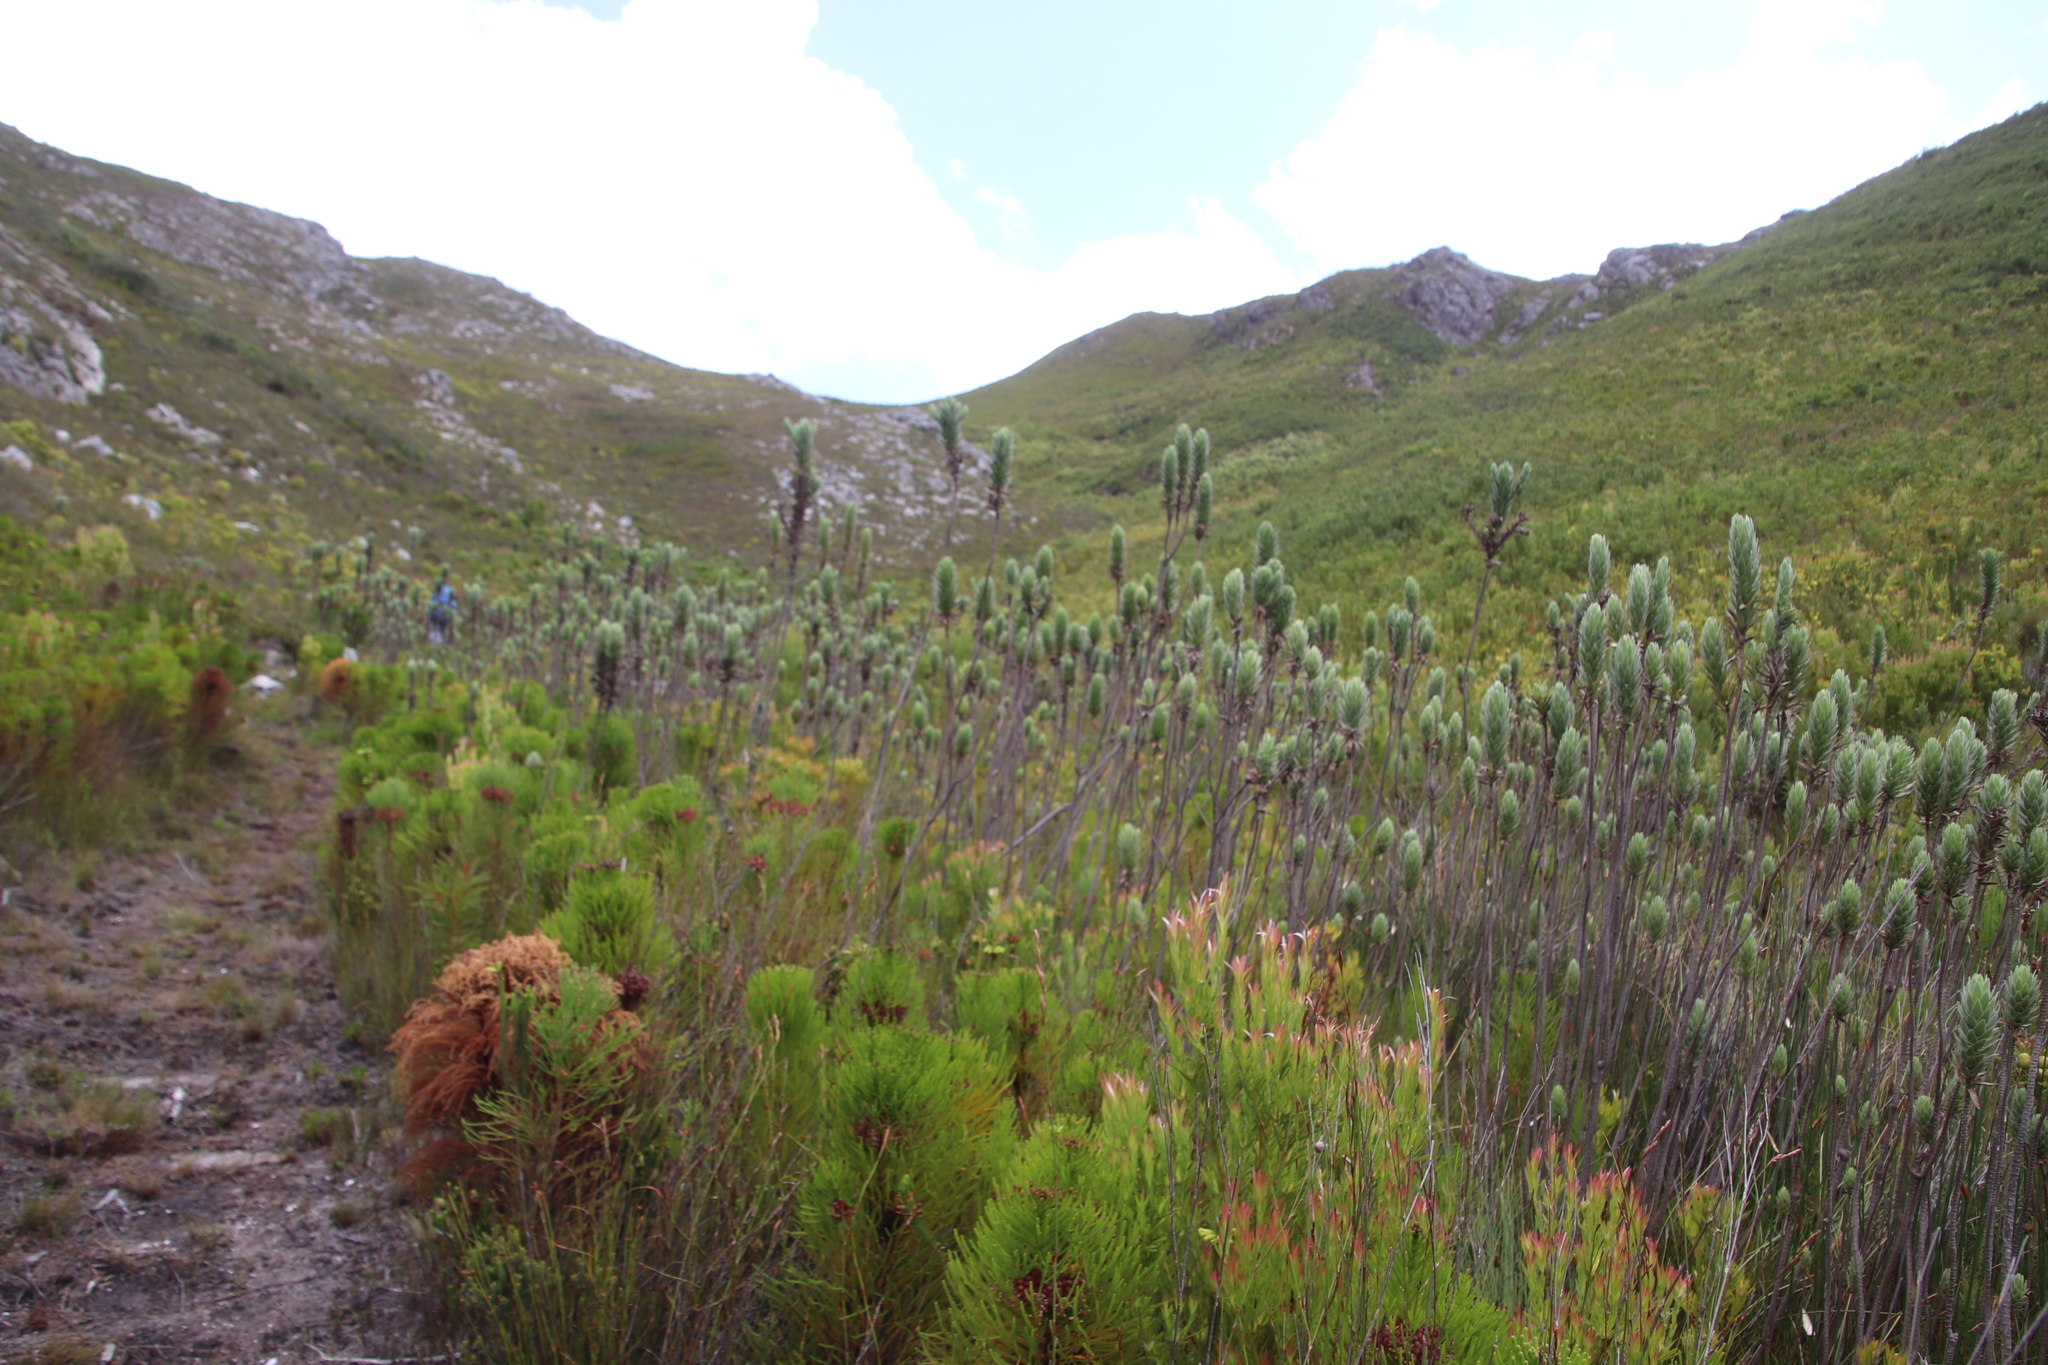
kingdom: Plantae
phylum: Tracheophyta
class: Magnoliopsida
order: Asterales
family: Asteraceae
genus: Osmitopsis
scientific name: Osmitopsis asteriscoides
